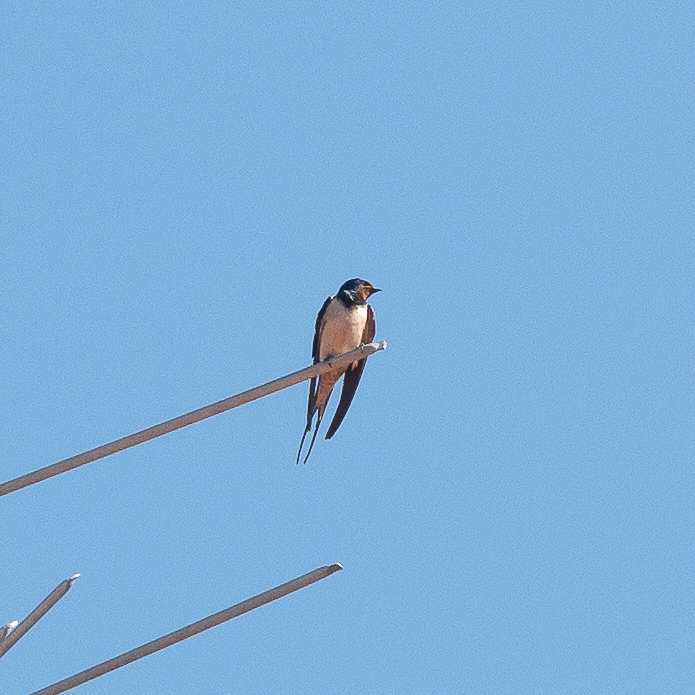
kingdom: Animalia
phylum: Chordata
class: Aves
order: Passeriformes
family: Hirundinidae
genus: Hirundo
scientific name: Hirundo rustica
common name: Barn swallow
